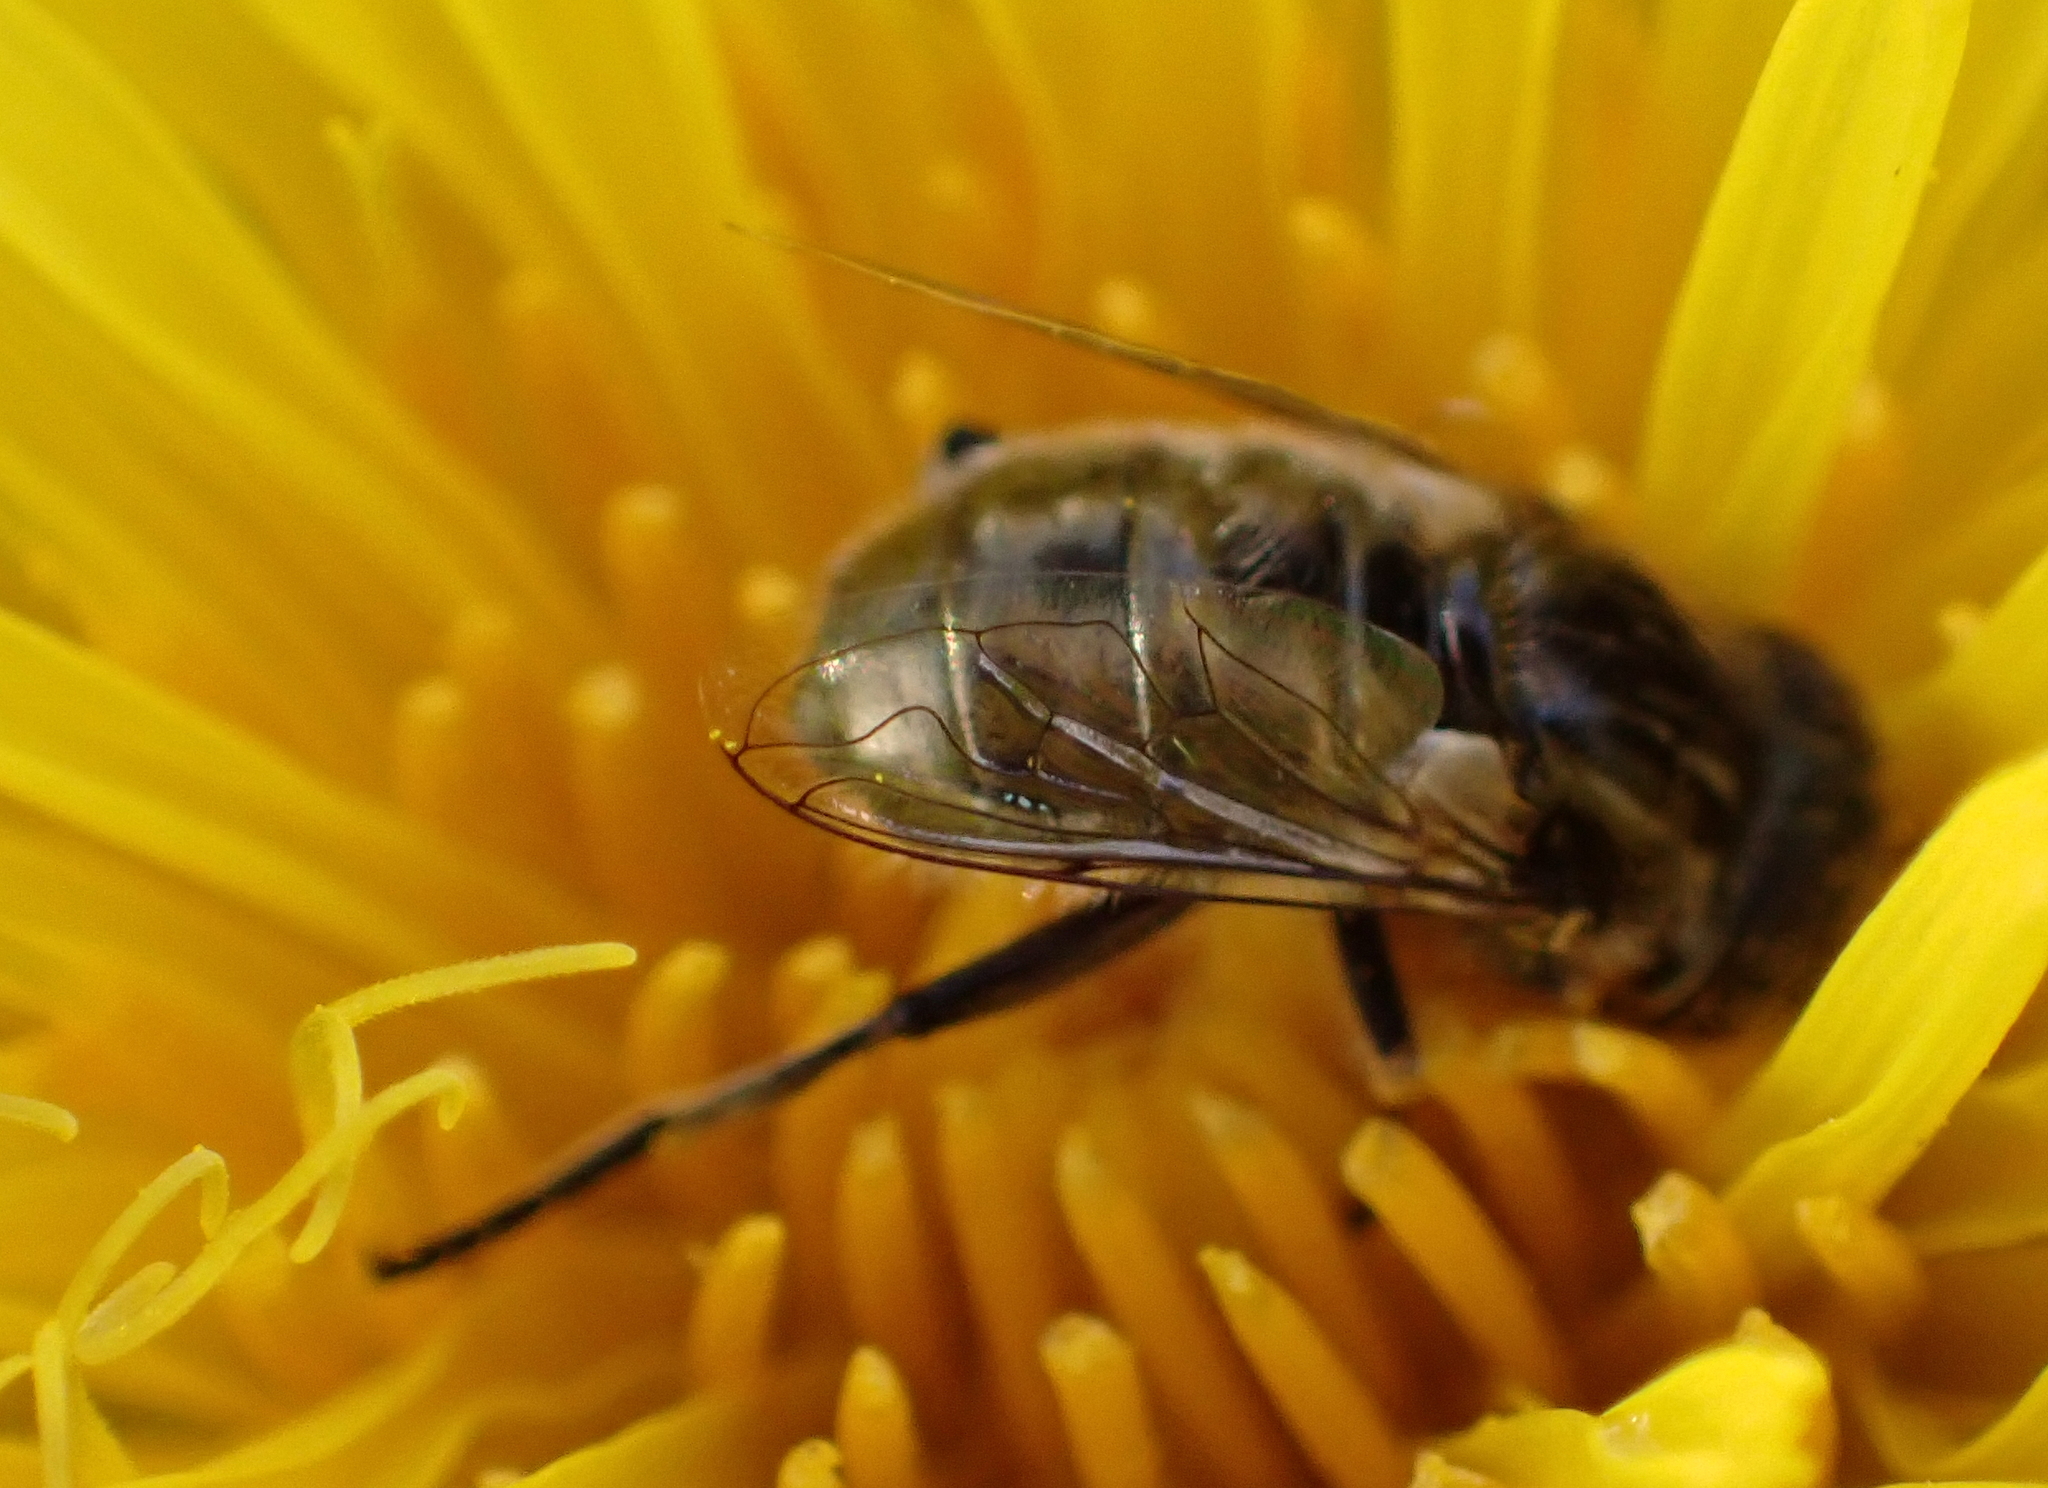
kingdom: Animalia
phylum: Arthropoda
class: Insecta
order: Diptera
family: Syrphidae
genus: Eristalinus
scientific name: Eristalinus sepulchralis
